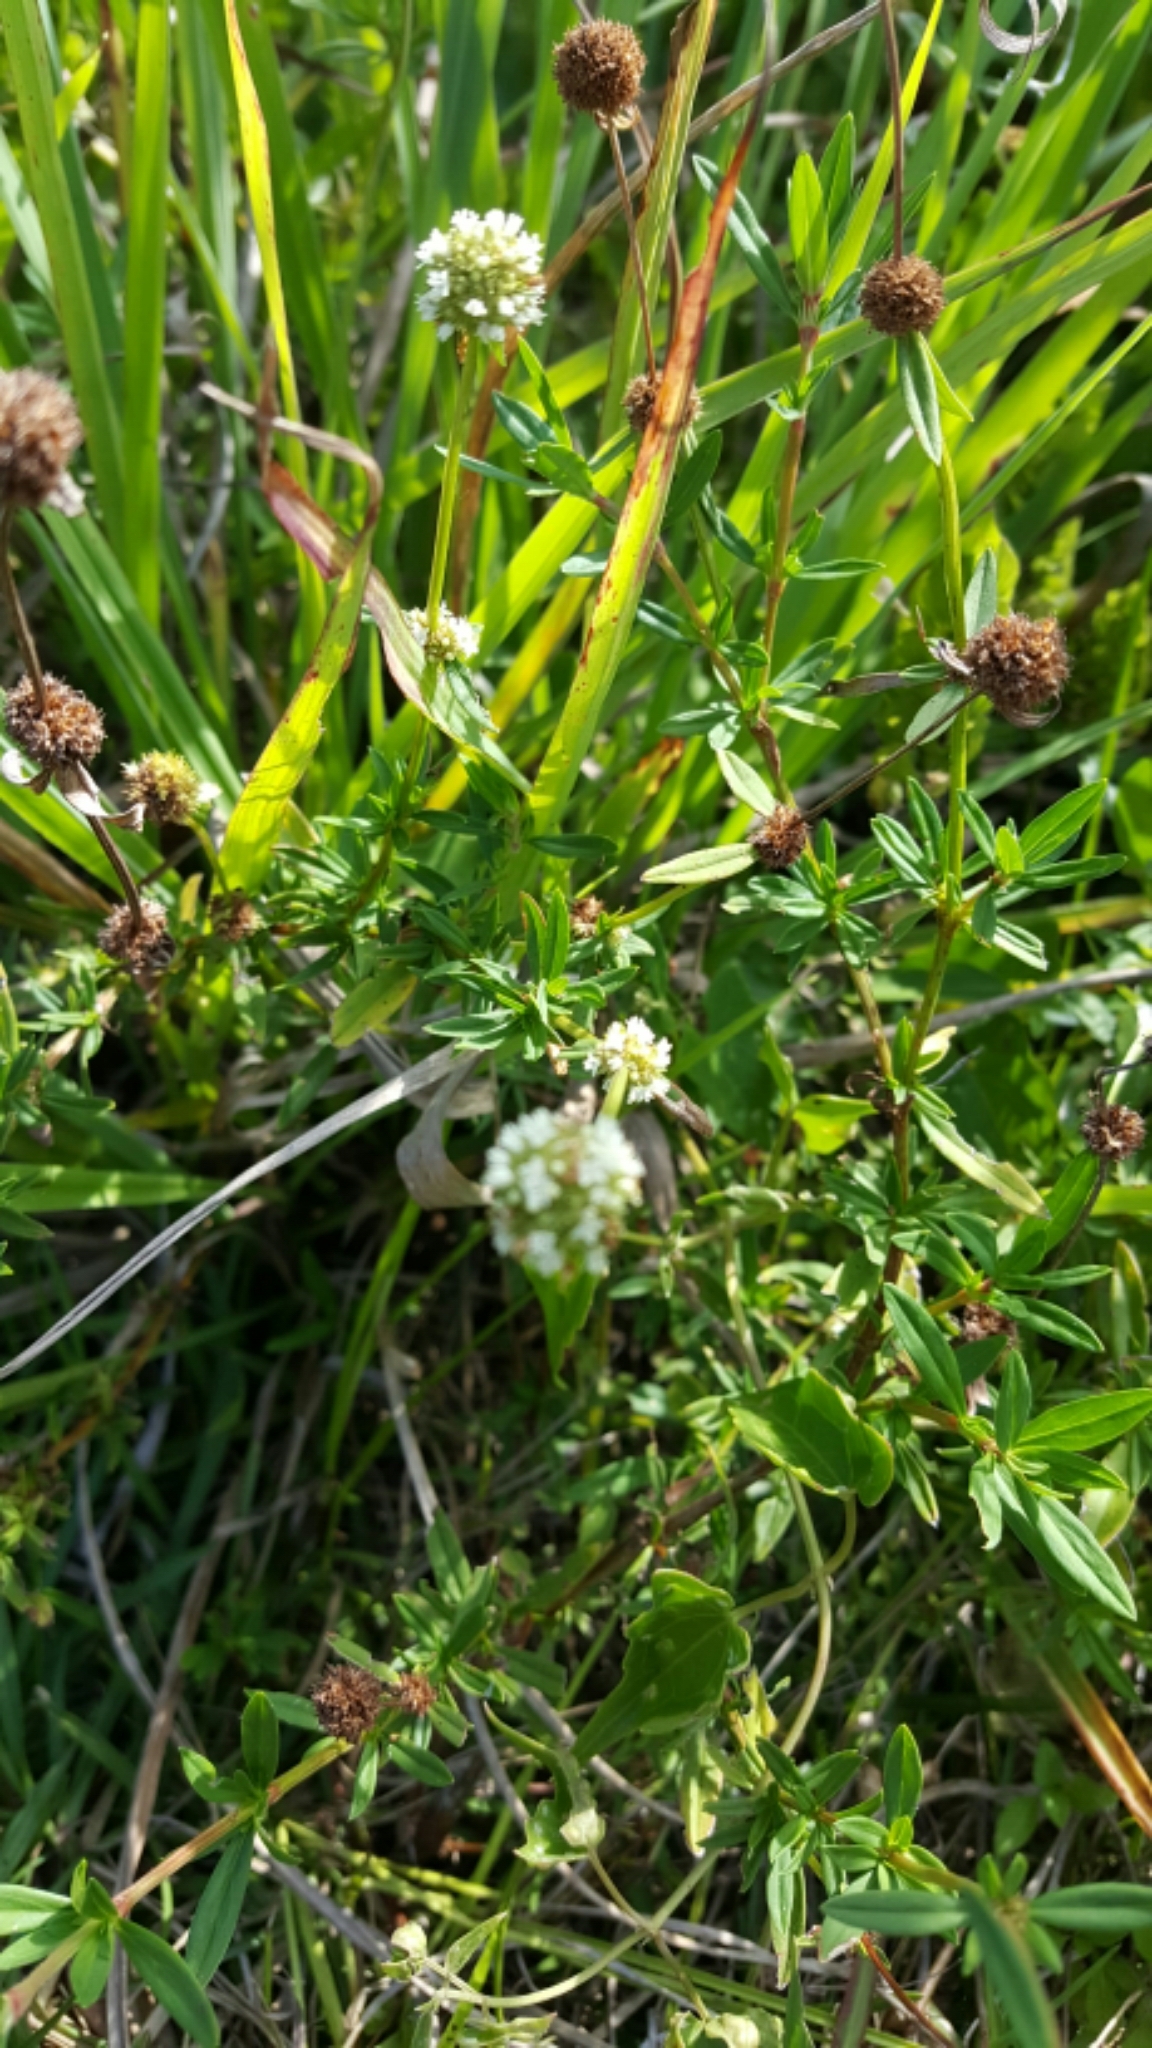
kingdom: Plantae
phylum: Tracheophyta
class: Magnoliopsida
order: Gentianales
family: Rubiaceae
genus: Spermacoce
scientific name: Spermacoce verticillata
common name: Shrubby false buttonweed
